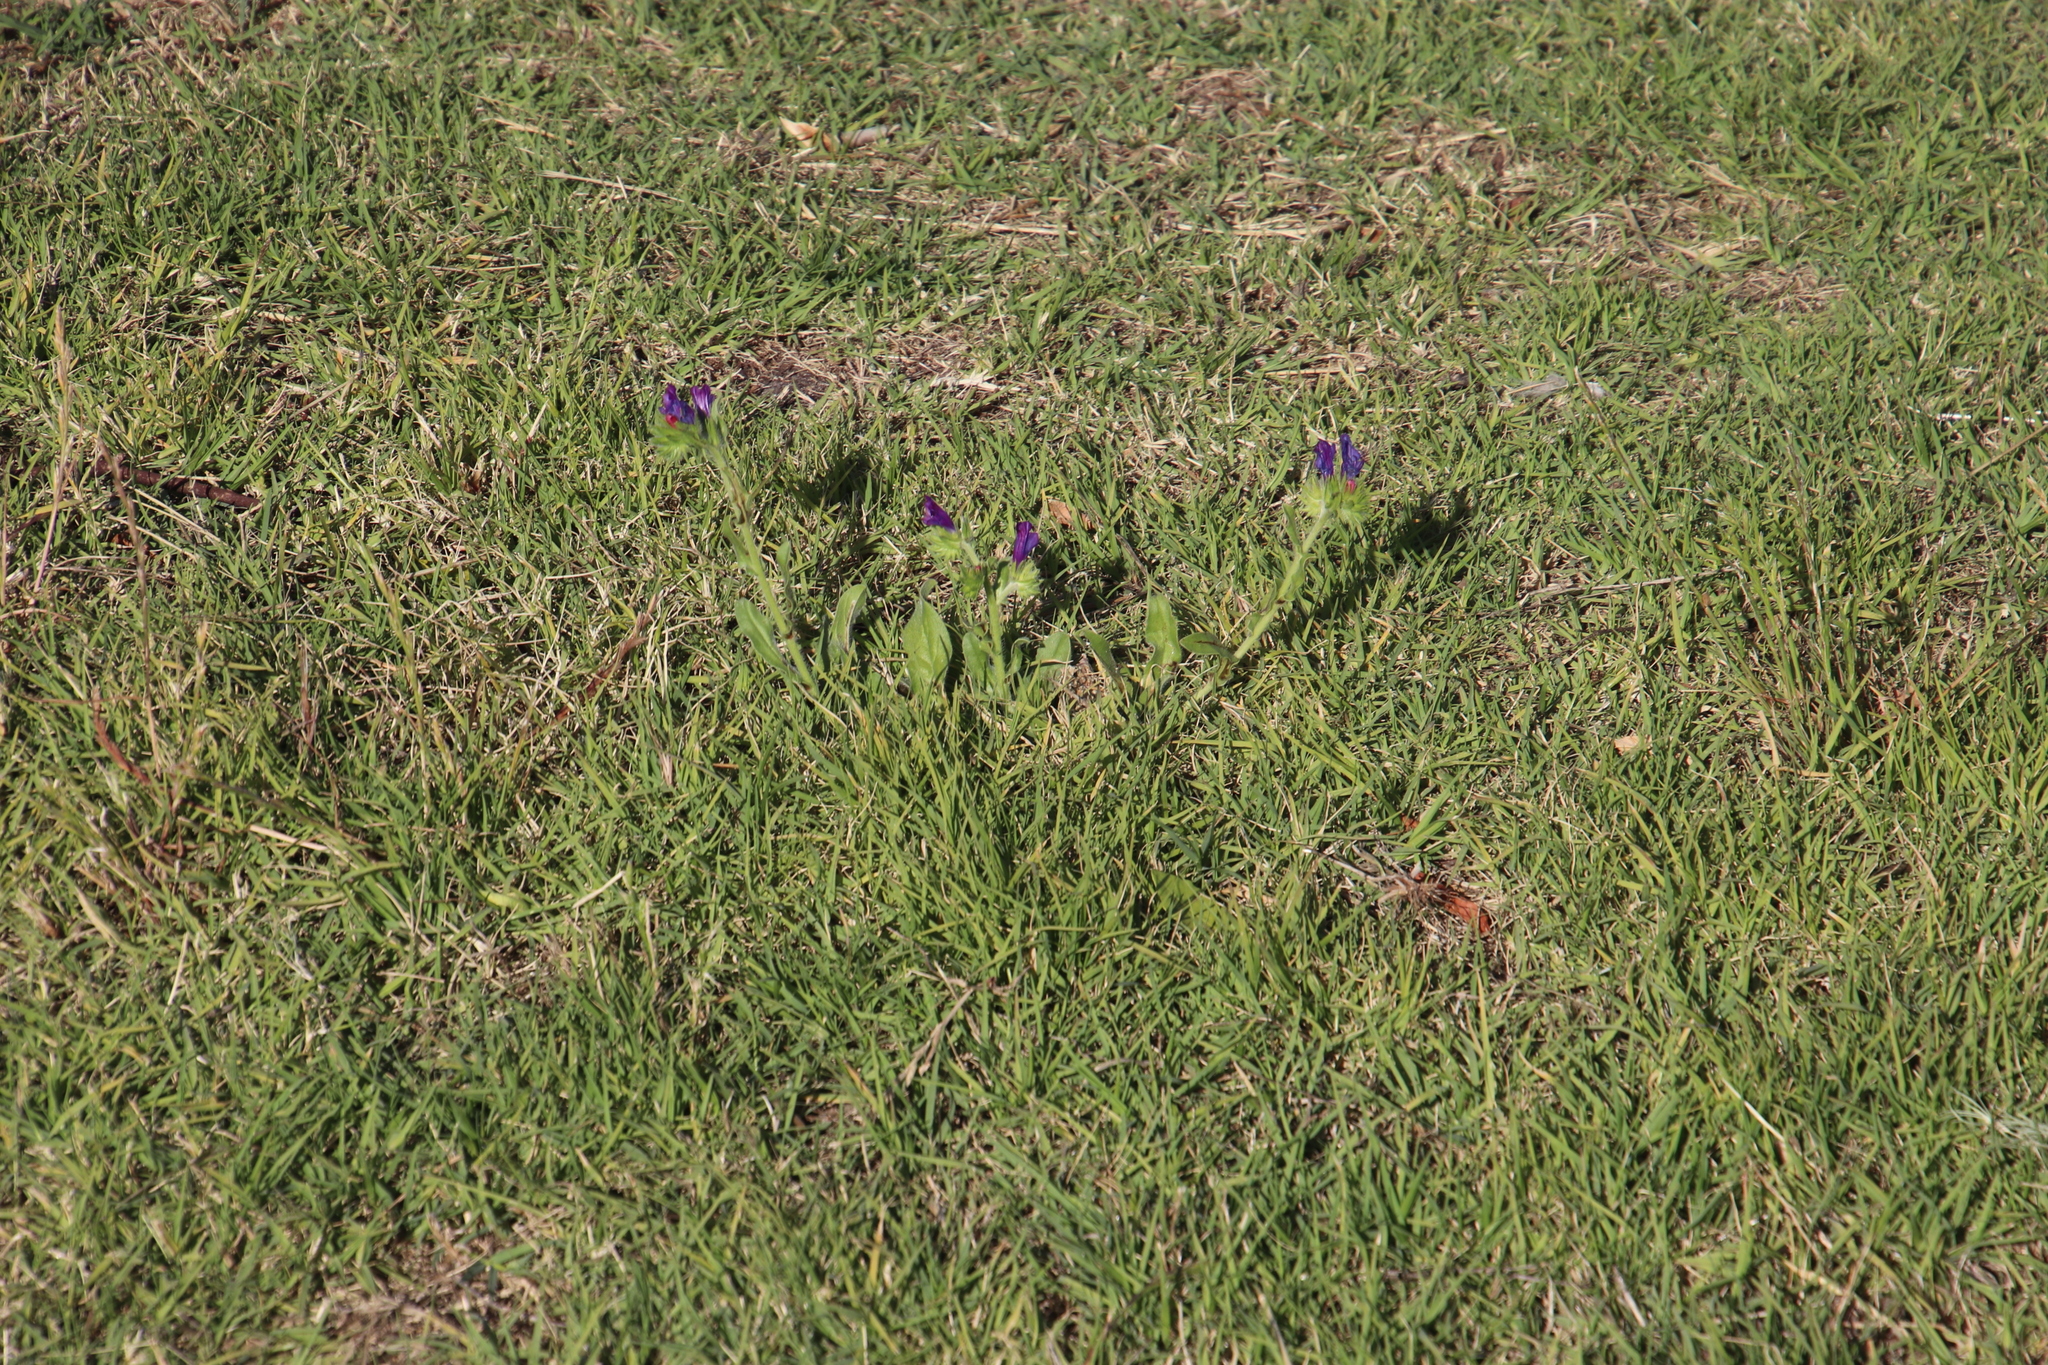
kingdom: Plantae
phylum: Tracheophyta
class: Magnoliopsida
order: Boraginales
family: Boraginaceae
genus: Echium
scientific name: Echium plantagineum
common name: Purple viper's-bugloss
